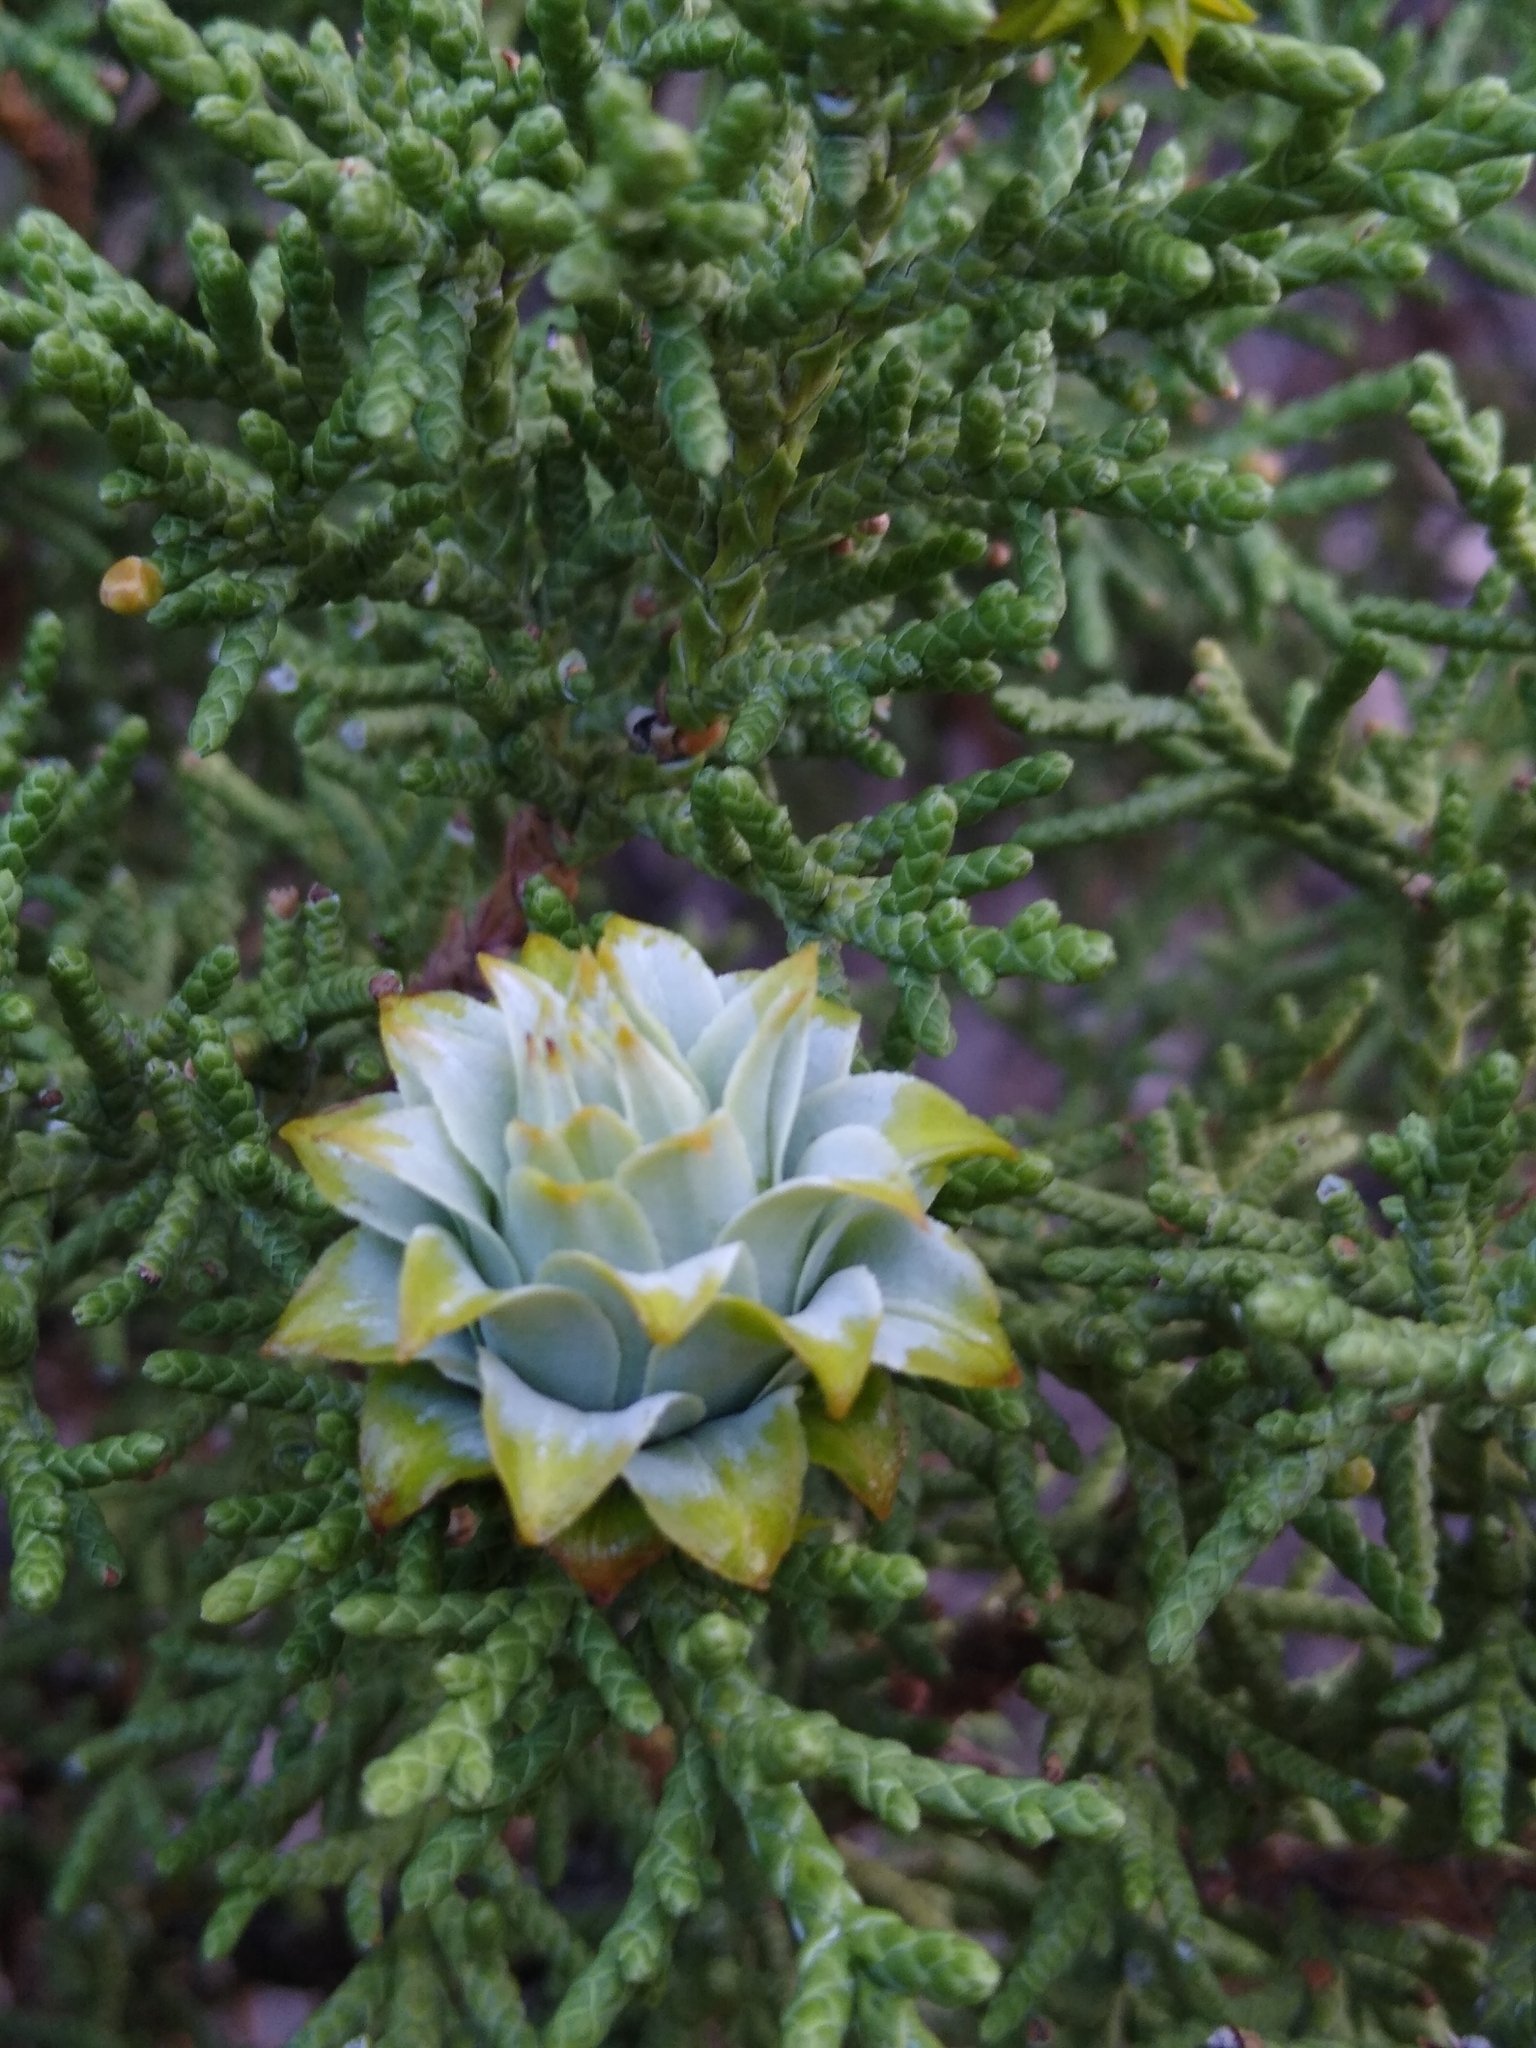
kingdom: Plantae
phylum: Tracheophyta
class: Pinopsida
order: Pinales
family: Cupressaceae
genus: Juniperus
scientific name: Juniperus osteosperma
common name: Utah juniper
